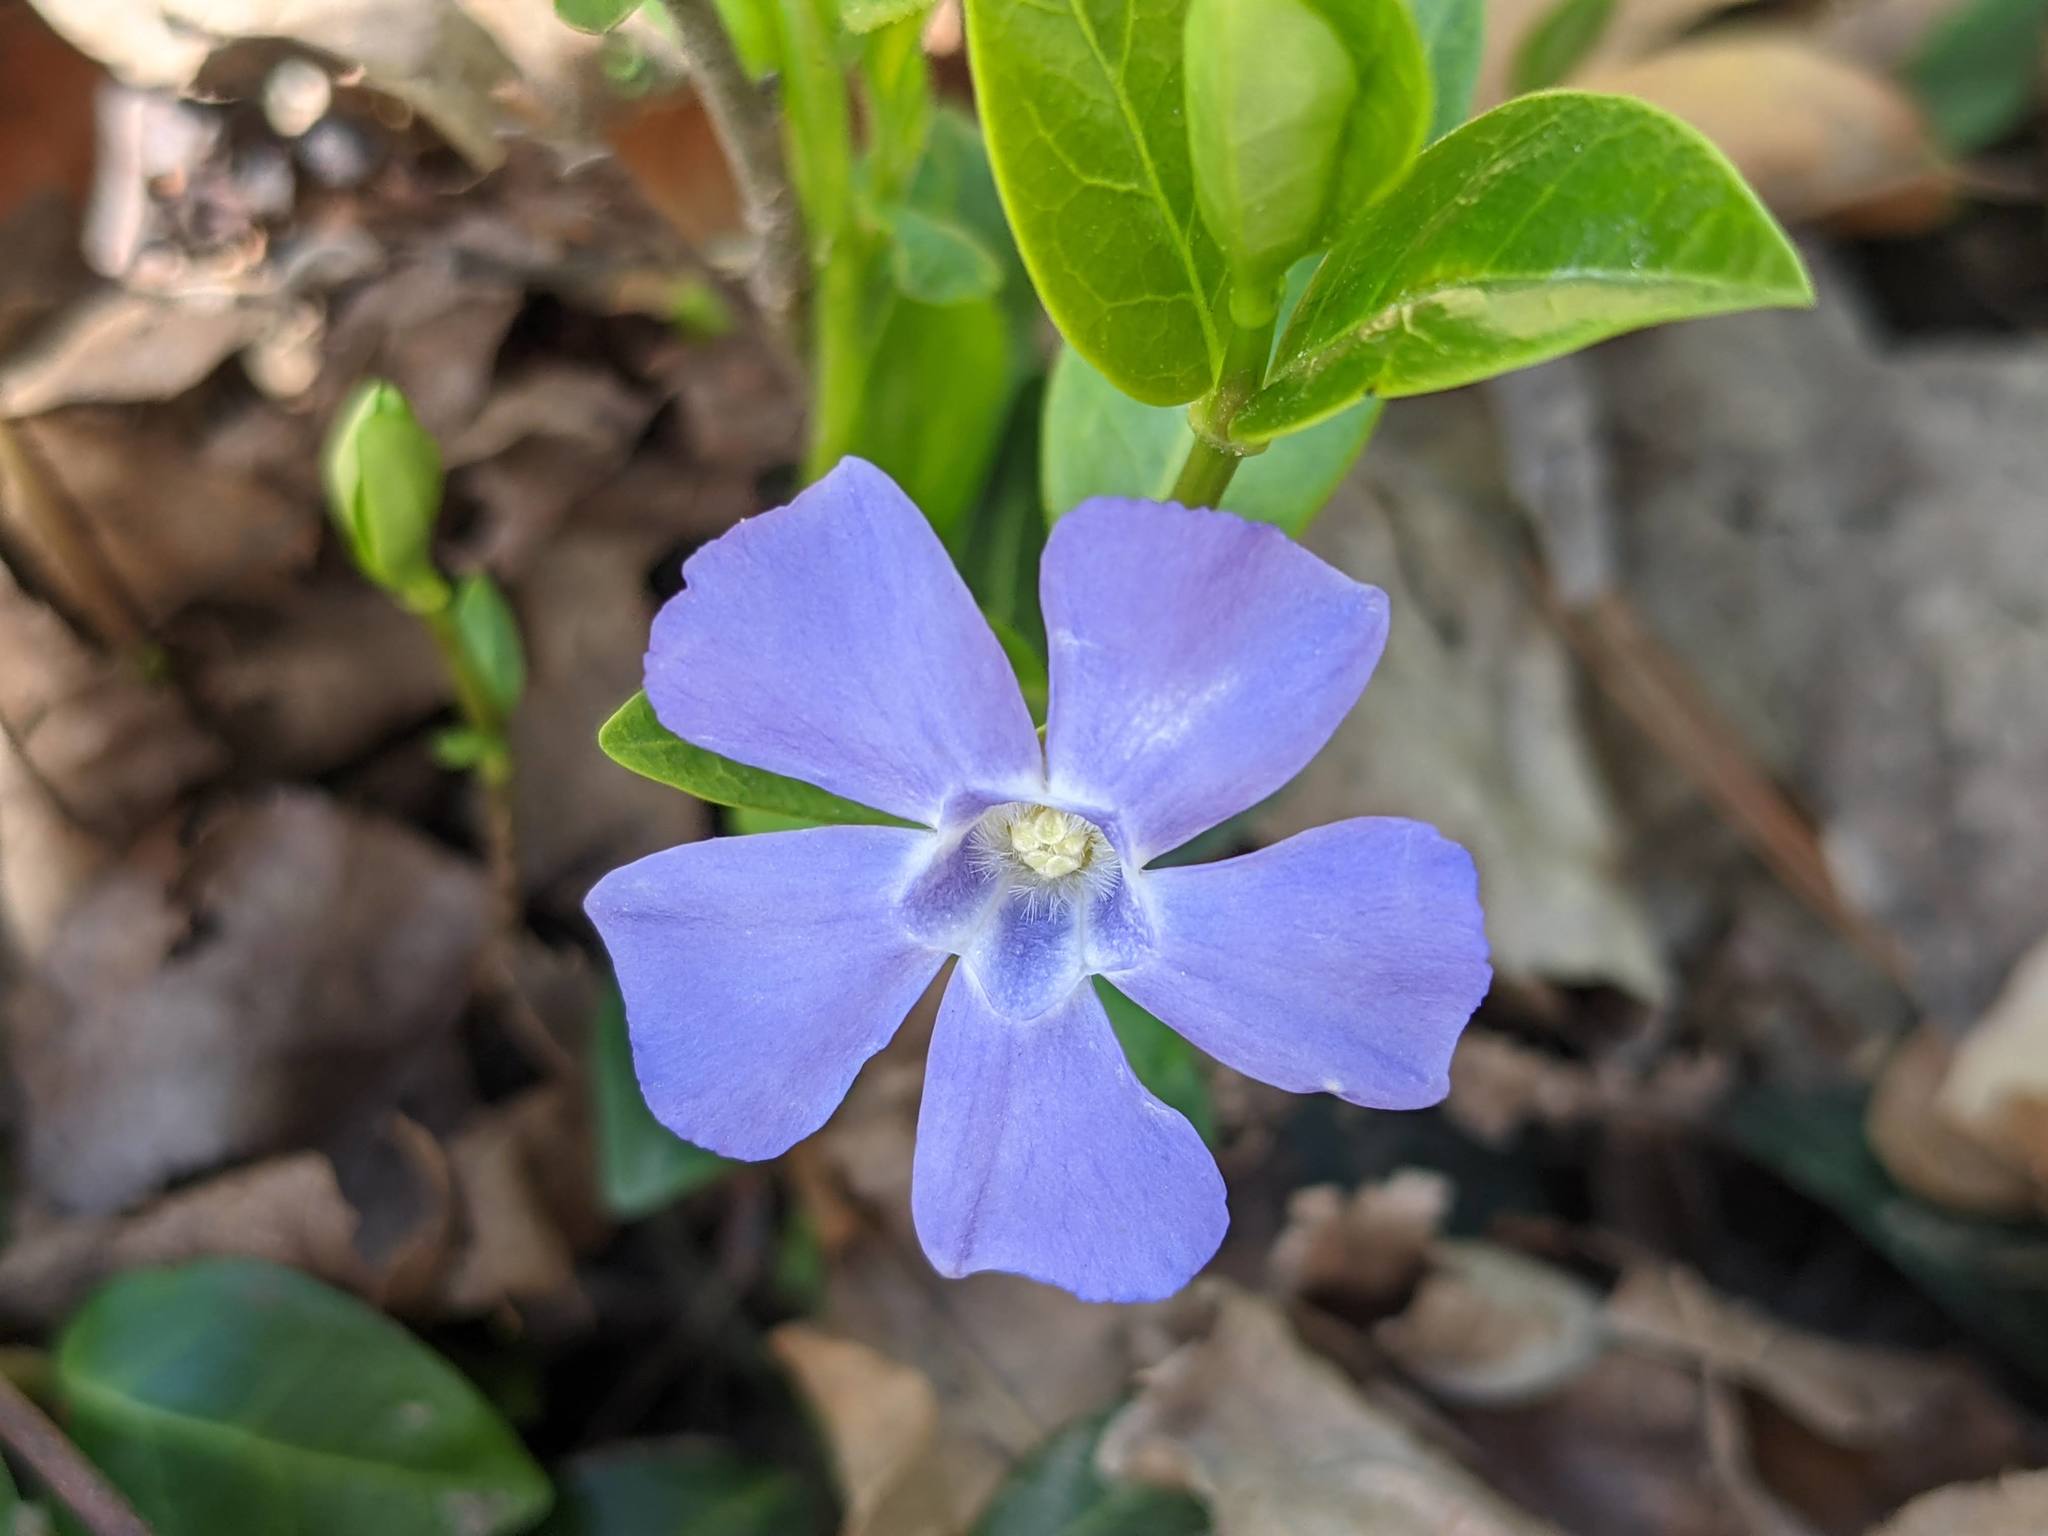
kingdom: Plantae
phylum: Tracheophyta
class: Magnoliopsida
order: Gentianales
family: Apocynaceae
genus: Vinca
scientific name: Vinca minor
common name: Lesser periwinkle
